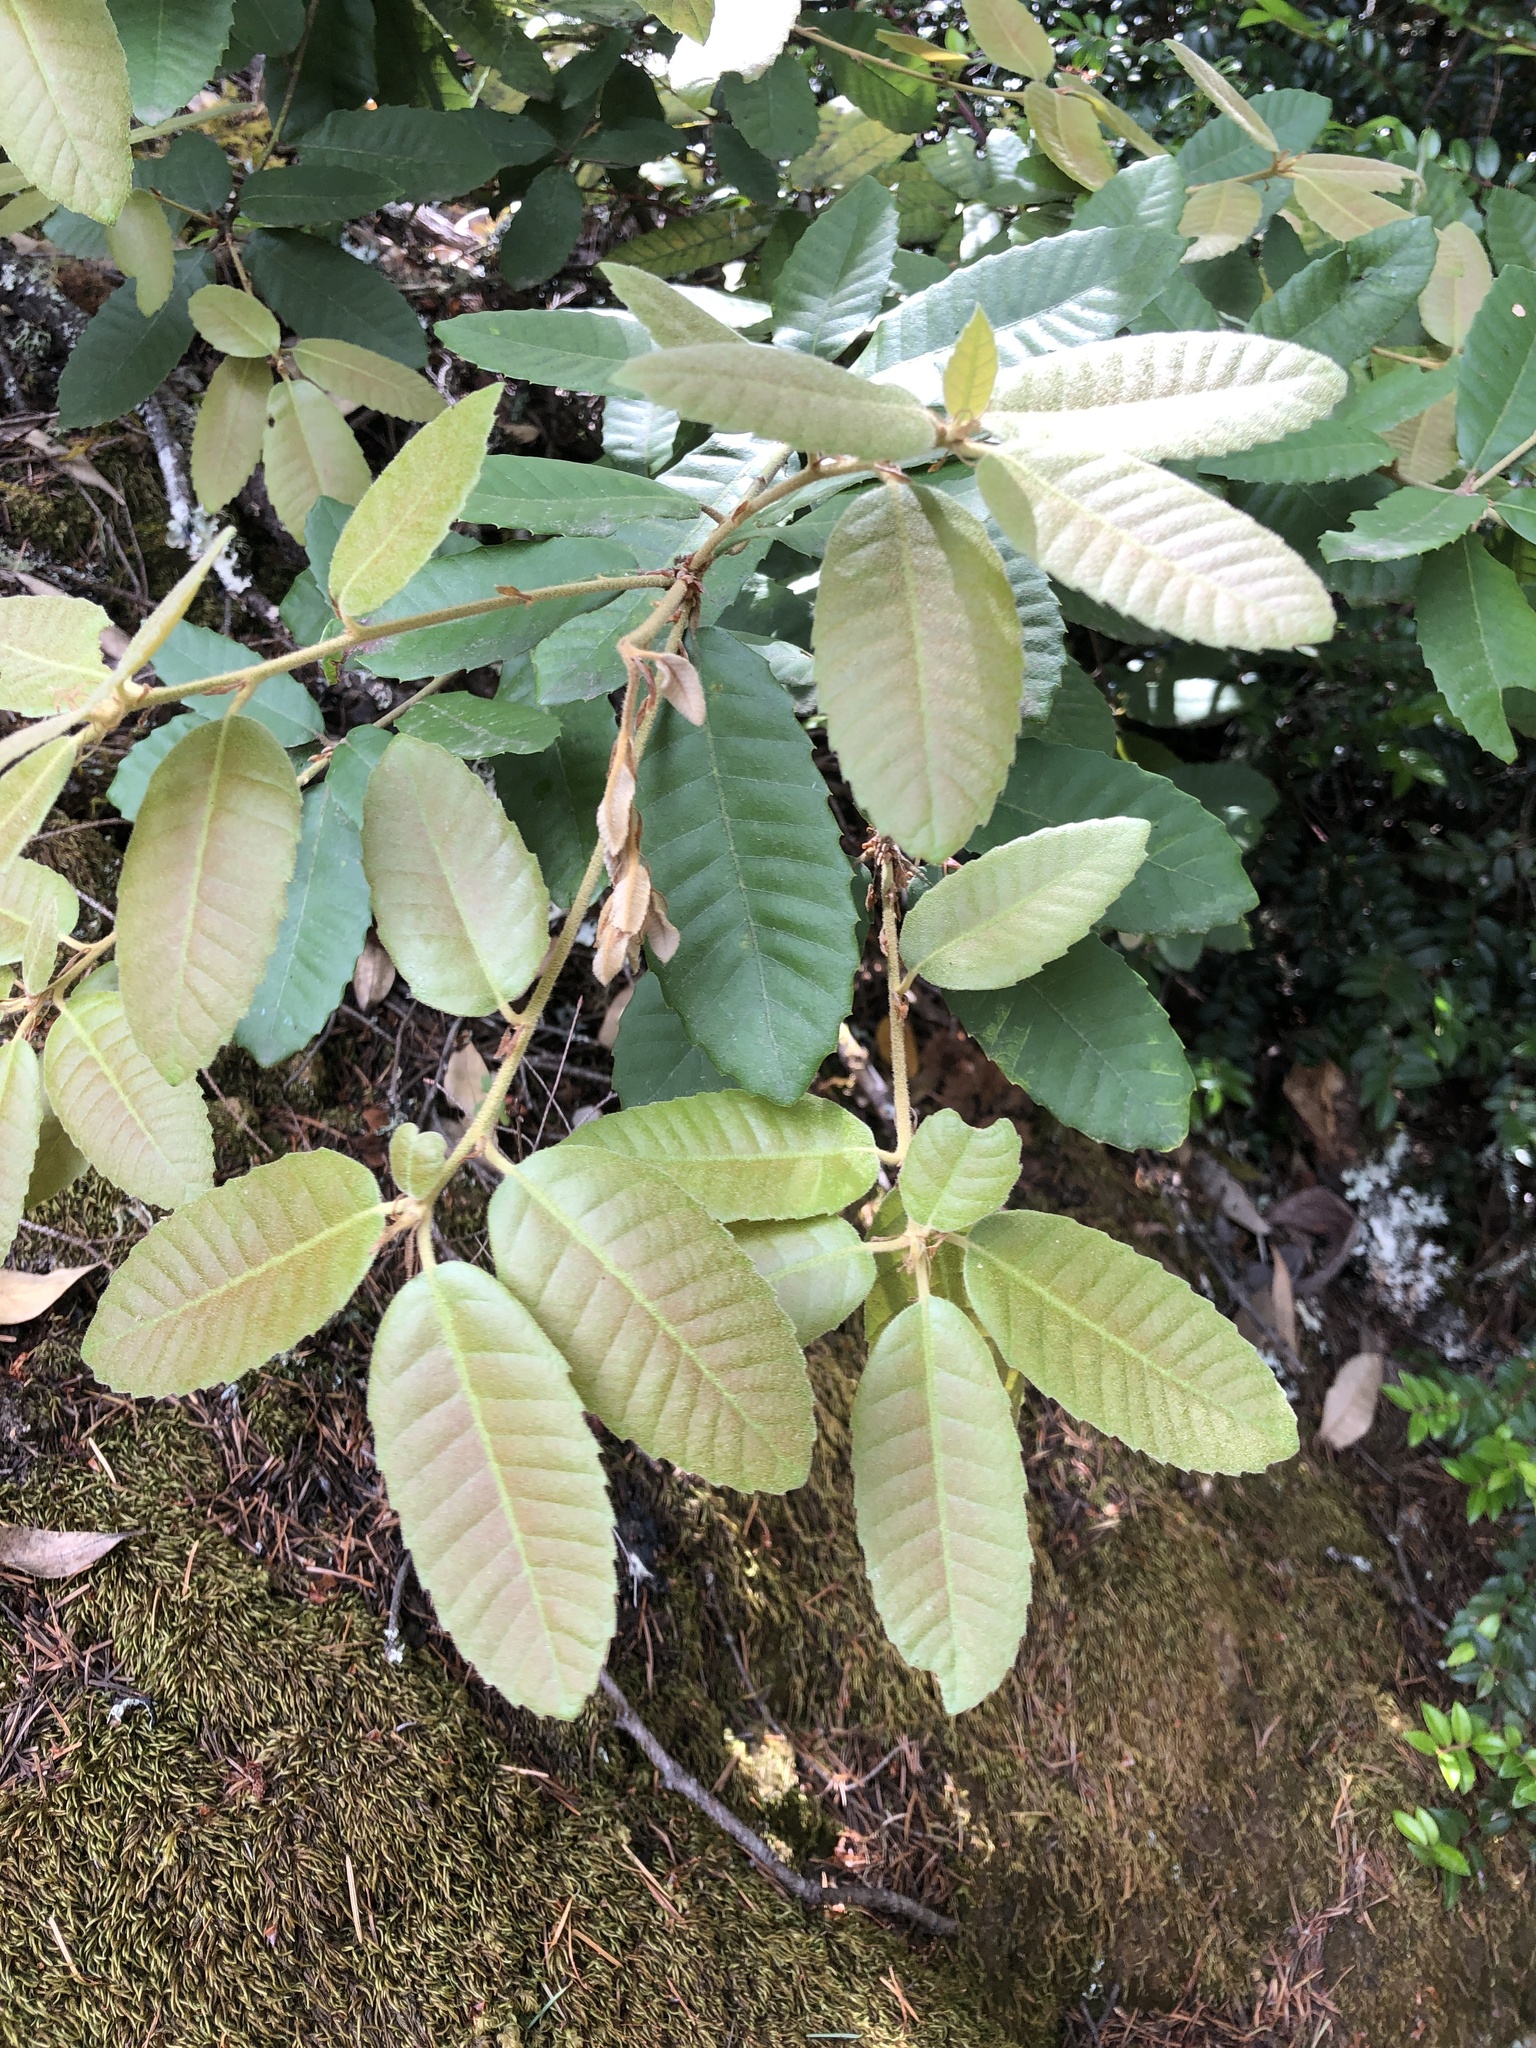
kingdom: Plantae
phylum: Tracheophyta
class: Magnoliopsida
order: Fagales
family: Fagaceae
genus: Notholithocarpus
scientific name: Notholithocarpus densiflorus
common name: Tan bark oak
